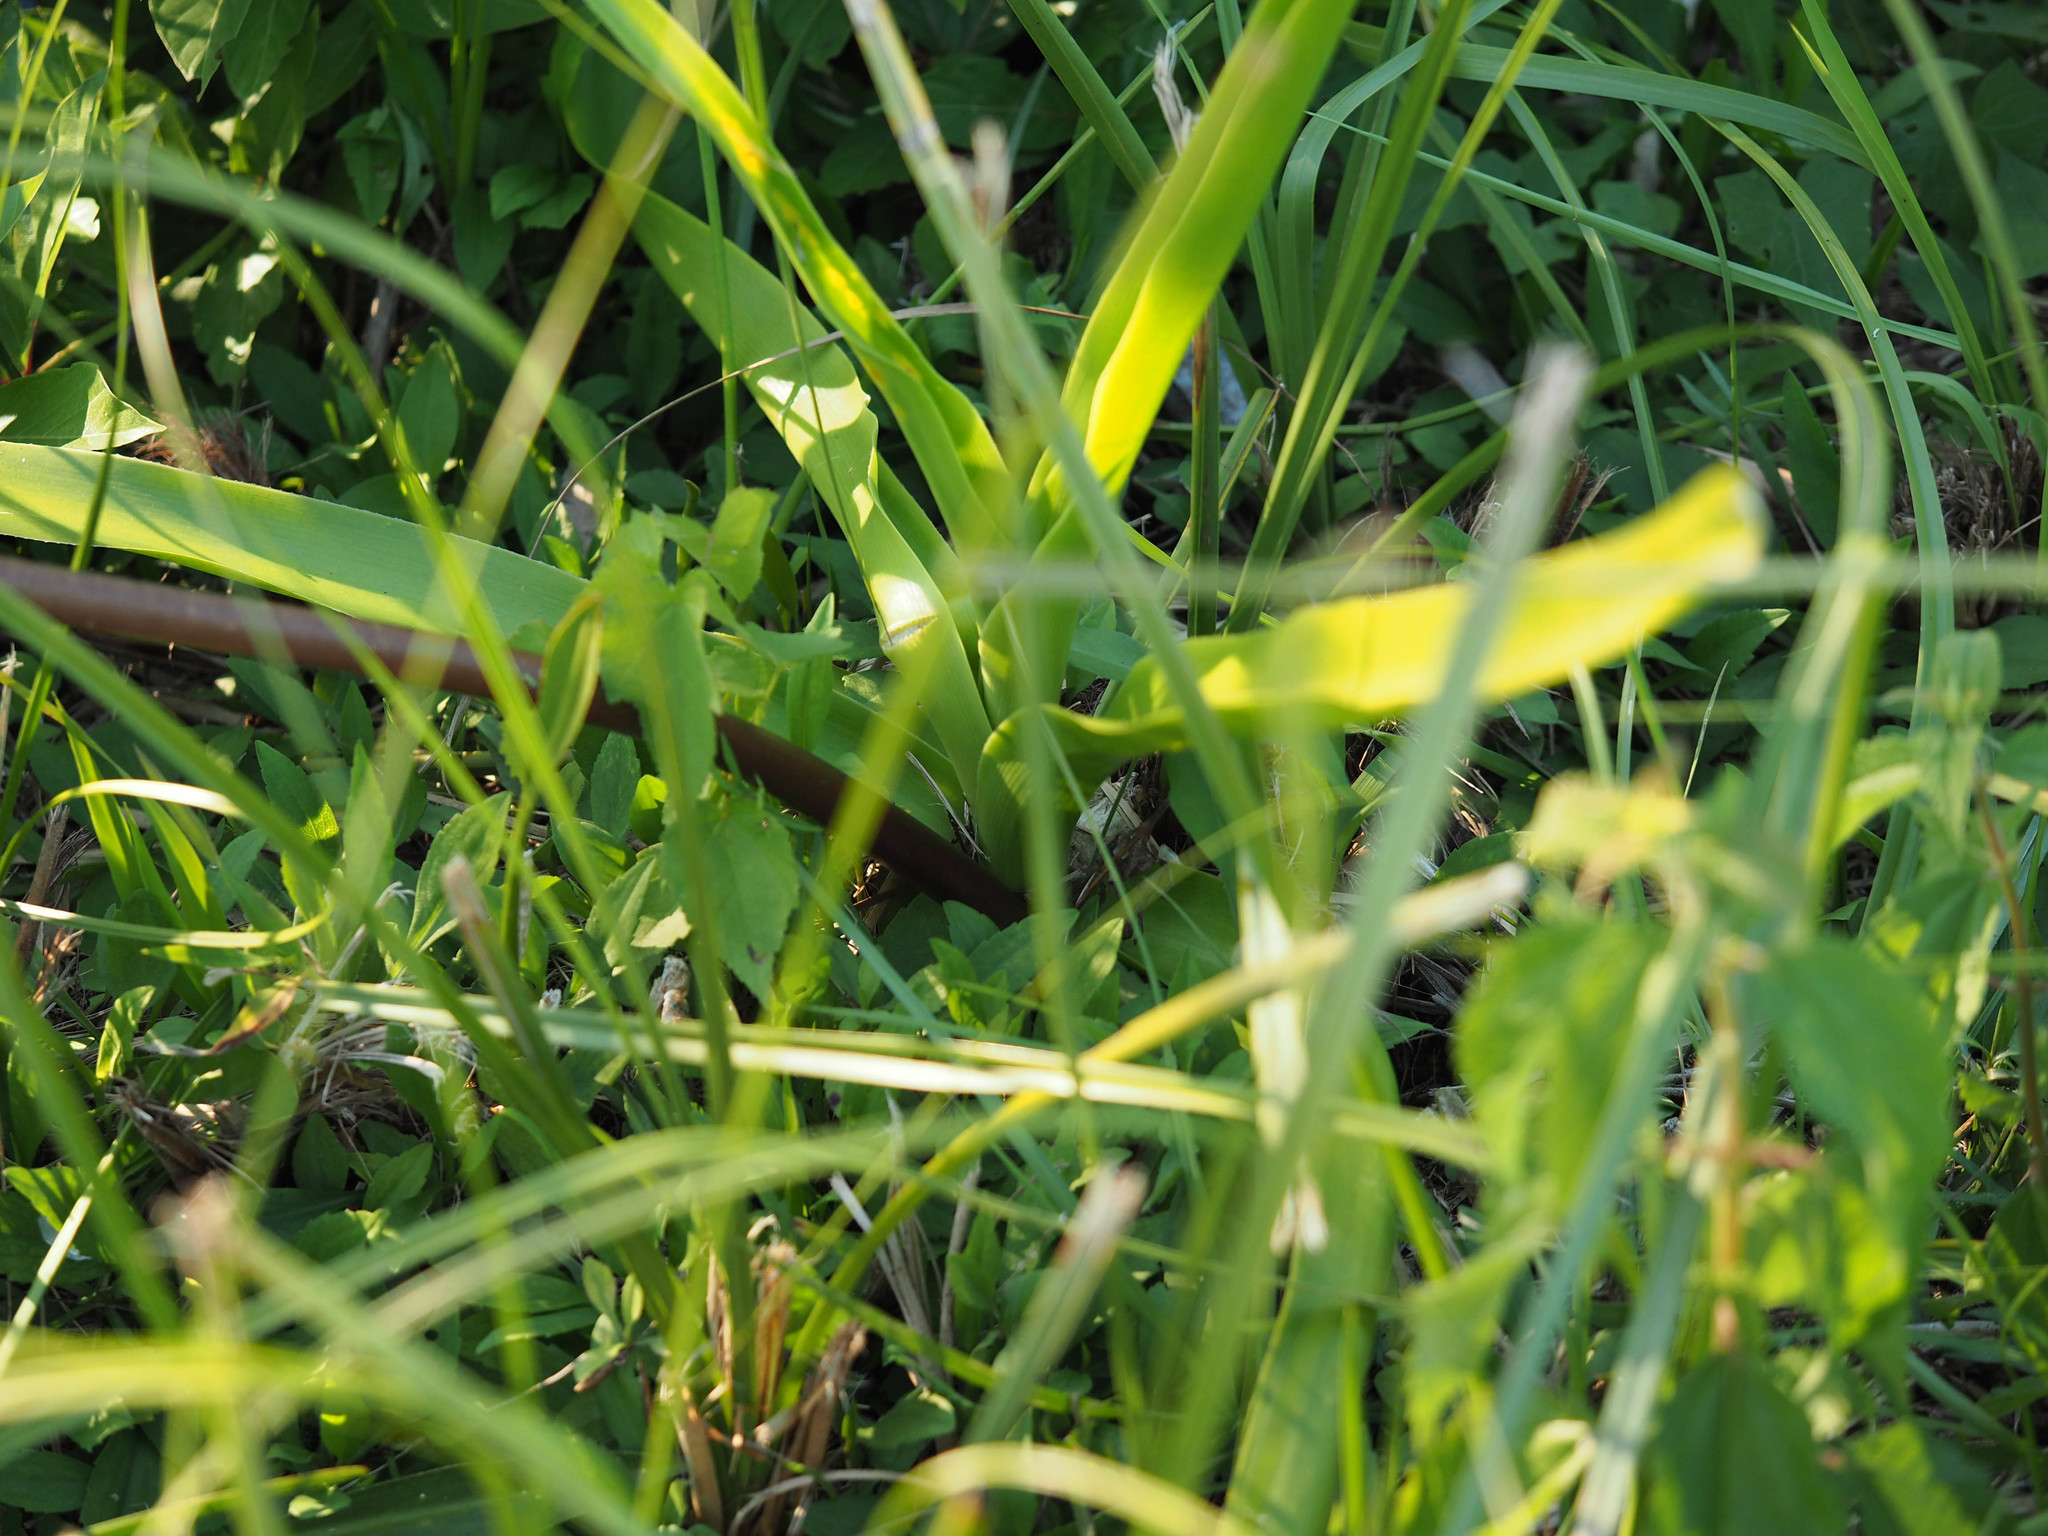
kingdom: Plantae
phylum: Tracheophyta
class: Liliopsida
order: Asparagales
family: Amaryllidaceae
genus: Crinum
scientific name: Crinum americanum
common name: Florida swamp-lily
